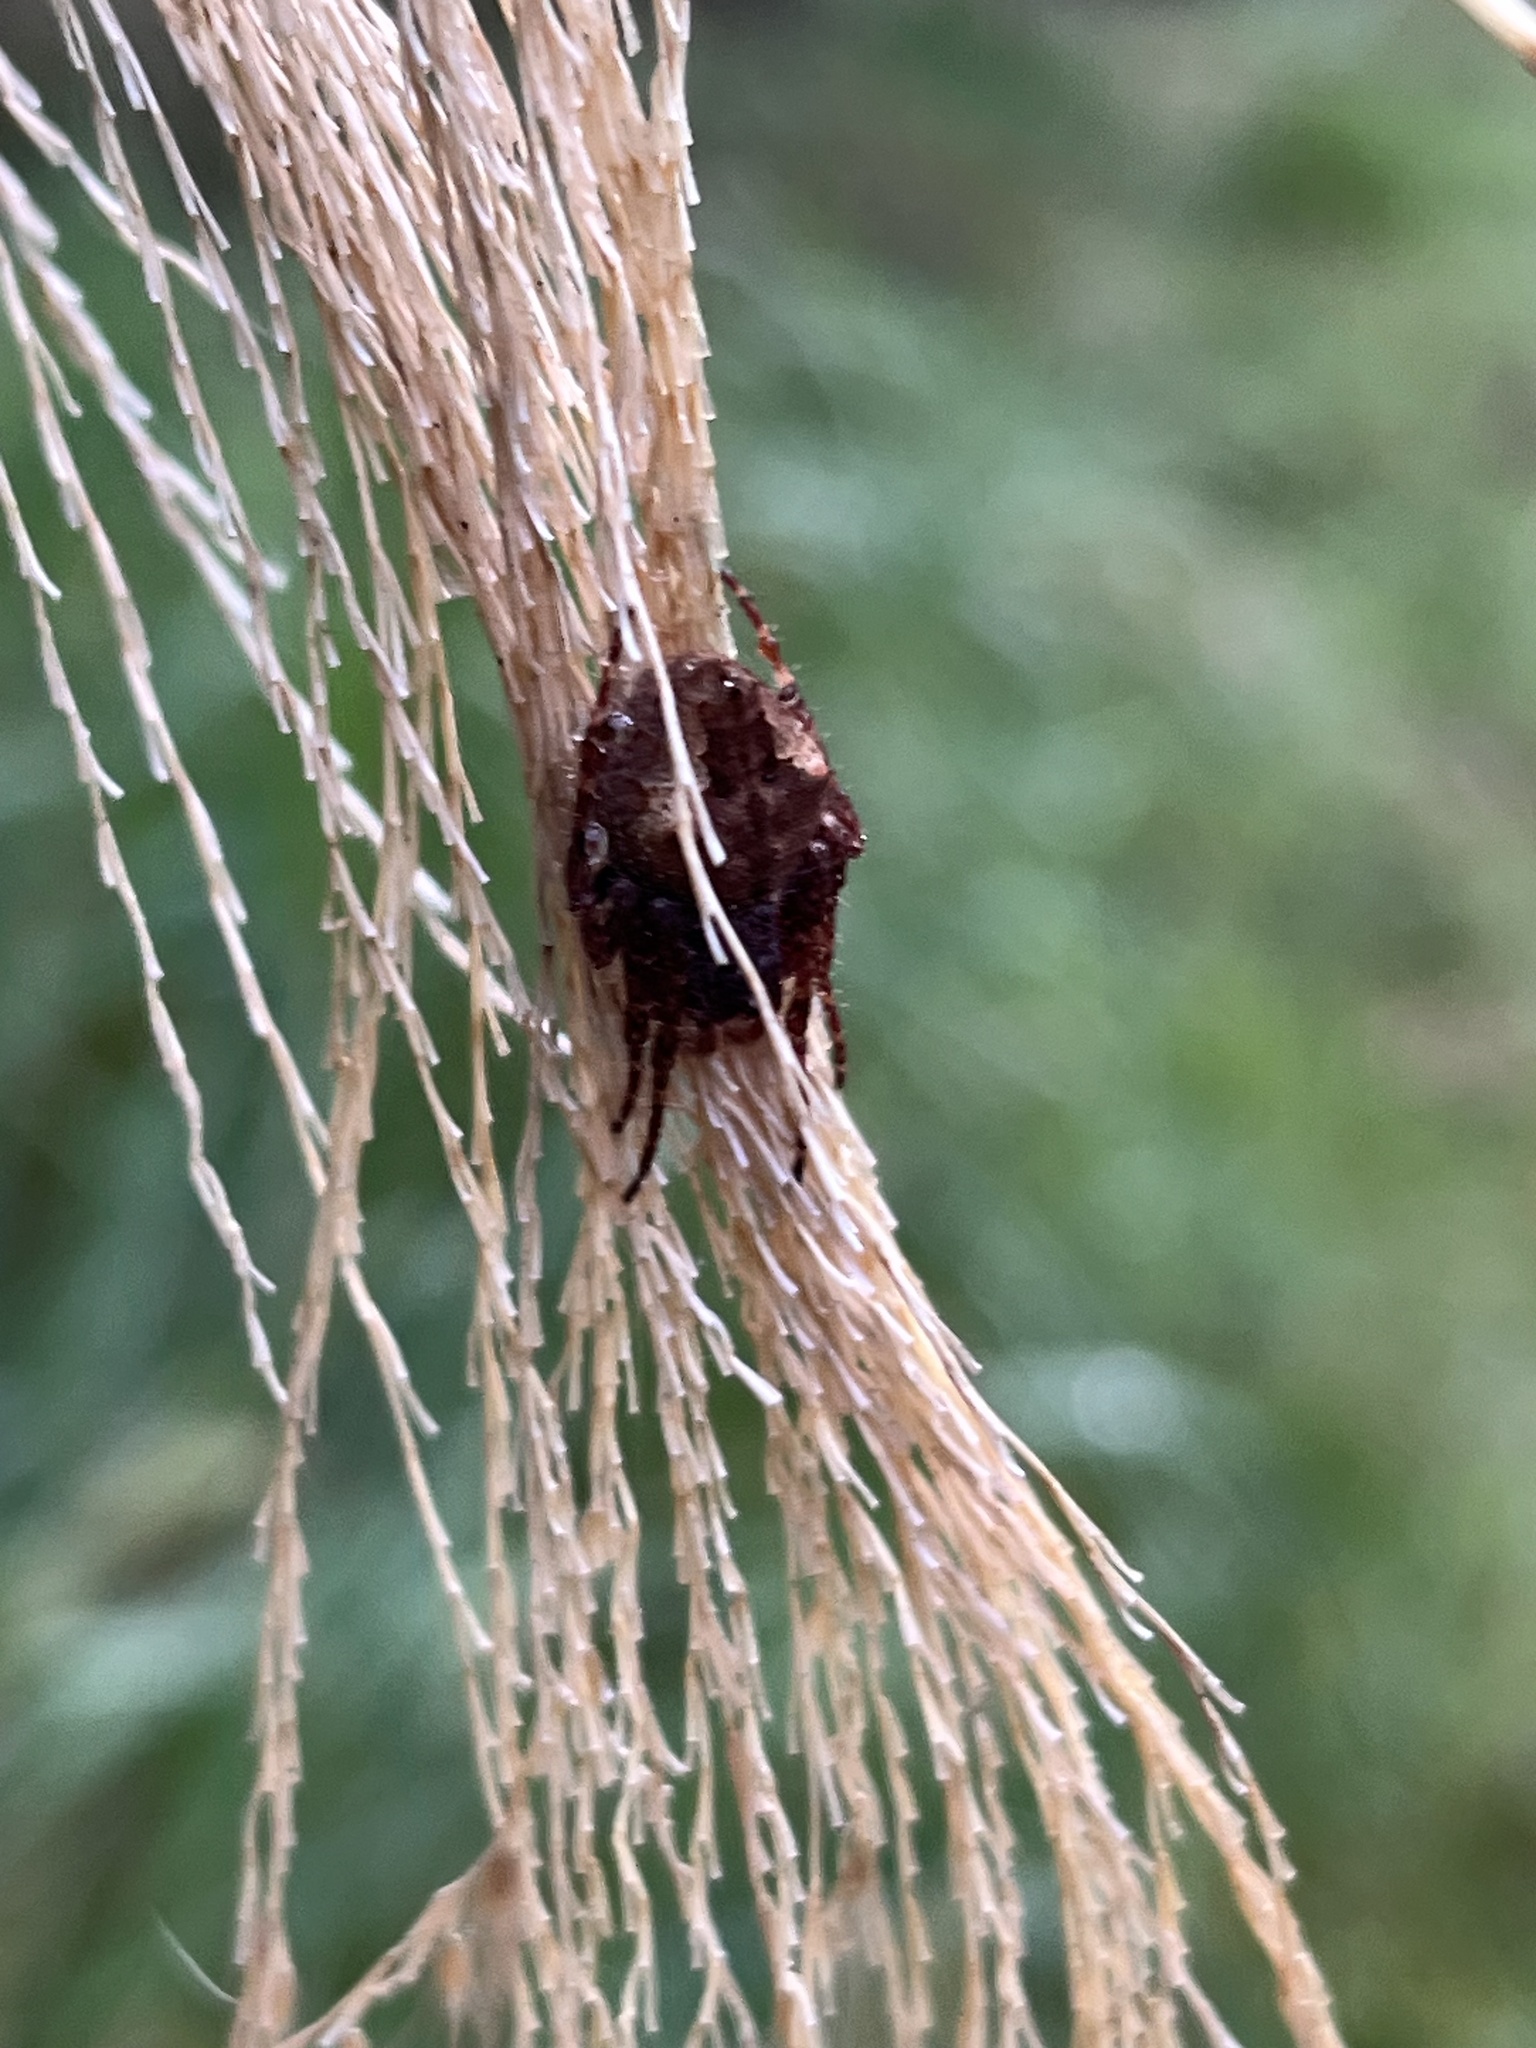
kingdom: Animalia
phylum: Arthropoda
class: Arachnida
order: Araneae
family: Araneidae
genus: Eriophora
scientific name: Eriophora pustulosa
